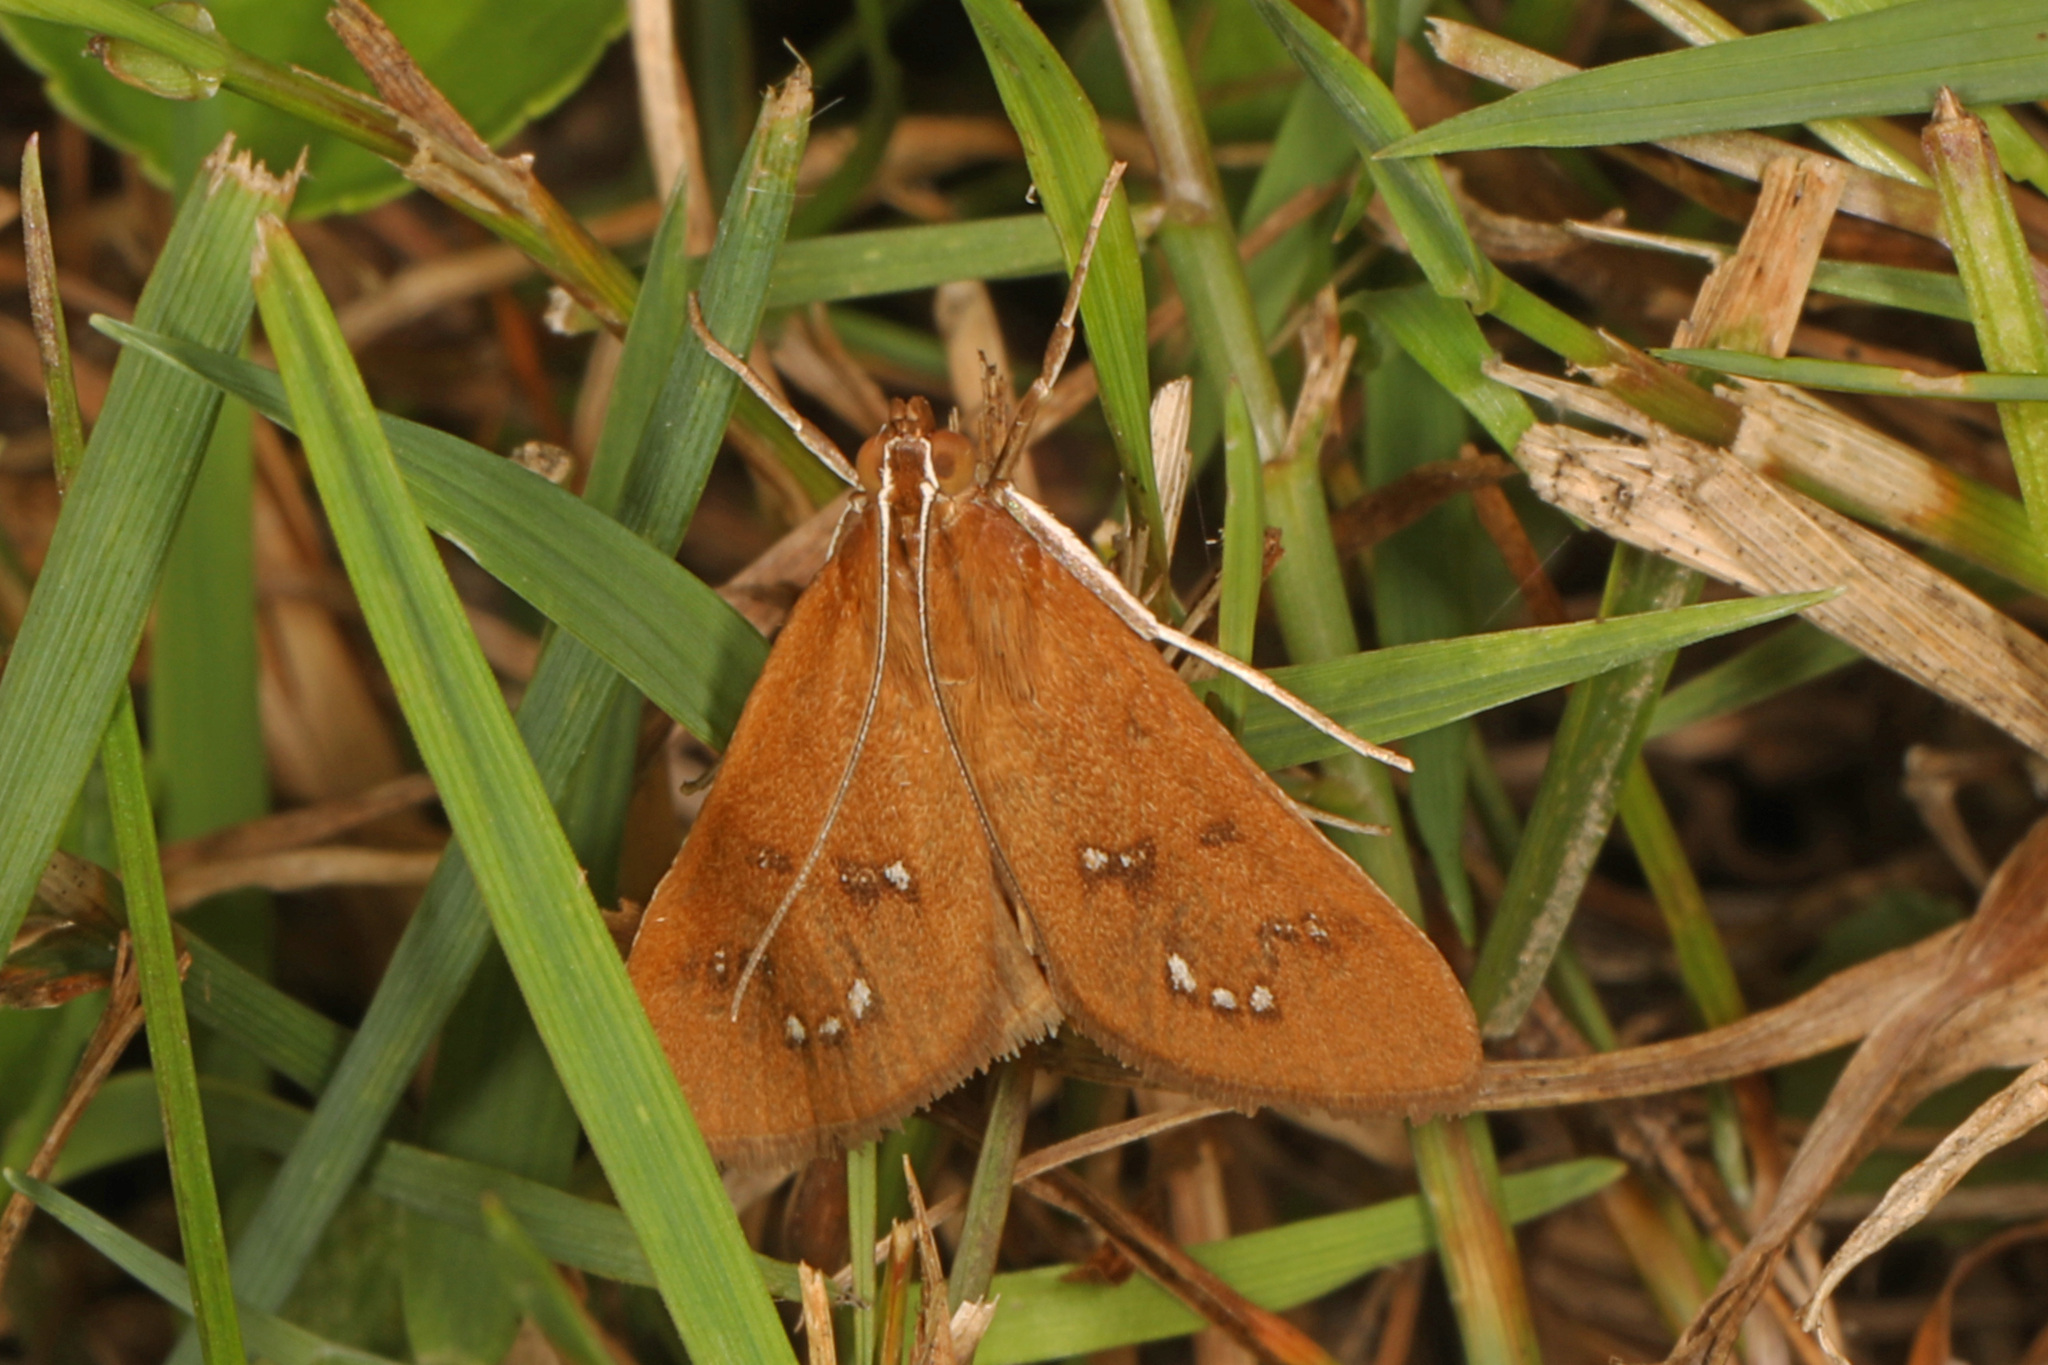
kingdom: Animalia
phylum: Arthropoda
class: Insecta
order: Lepidoptera
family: Crambidae
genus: Diastictis
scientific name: Diastictis ventralis
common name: White-spotted brown
